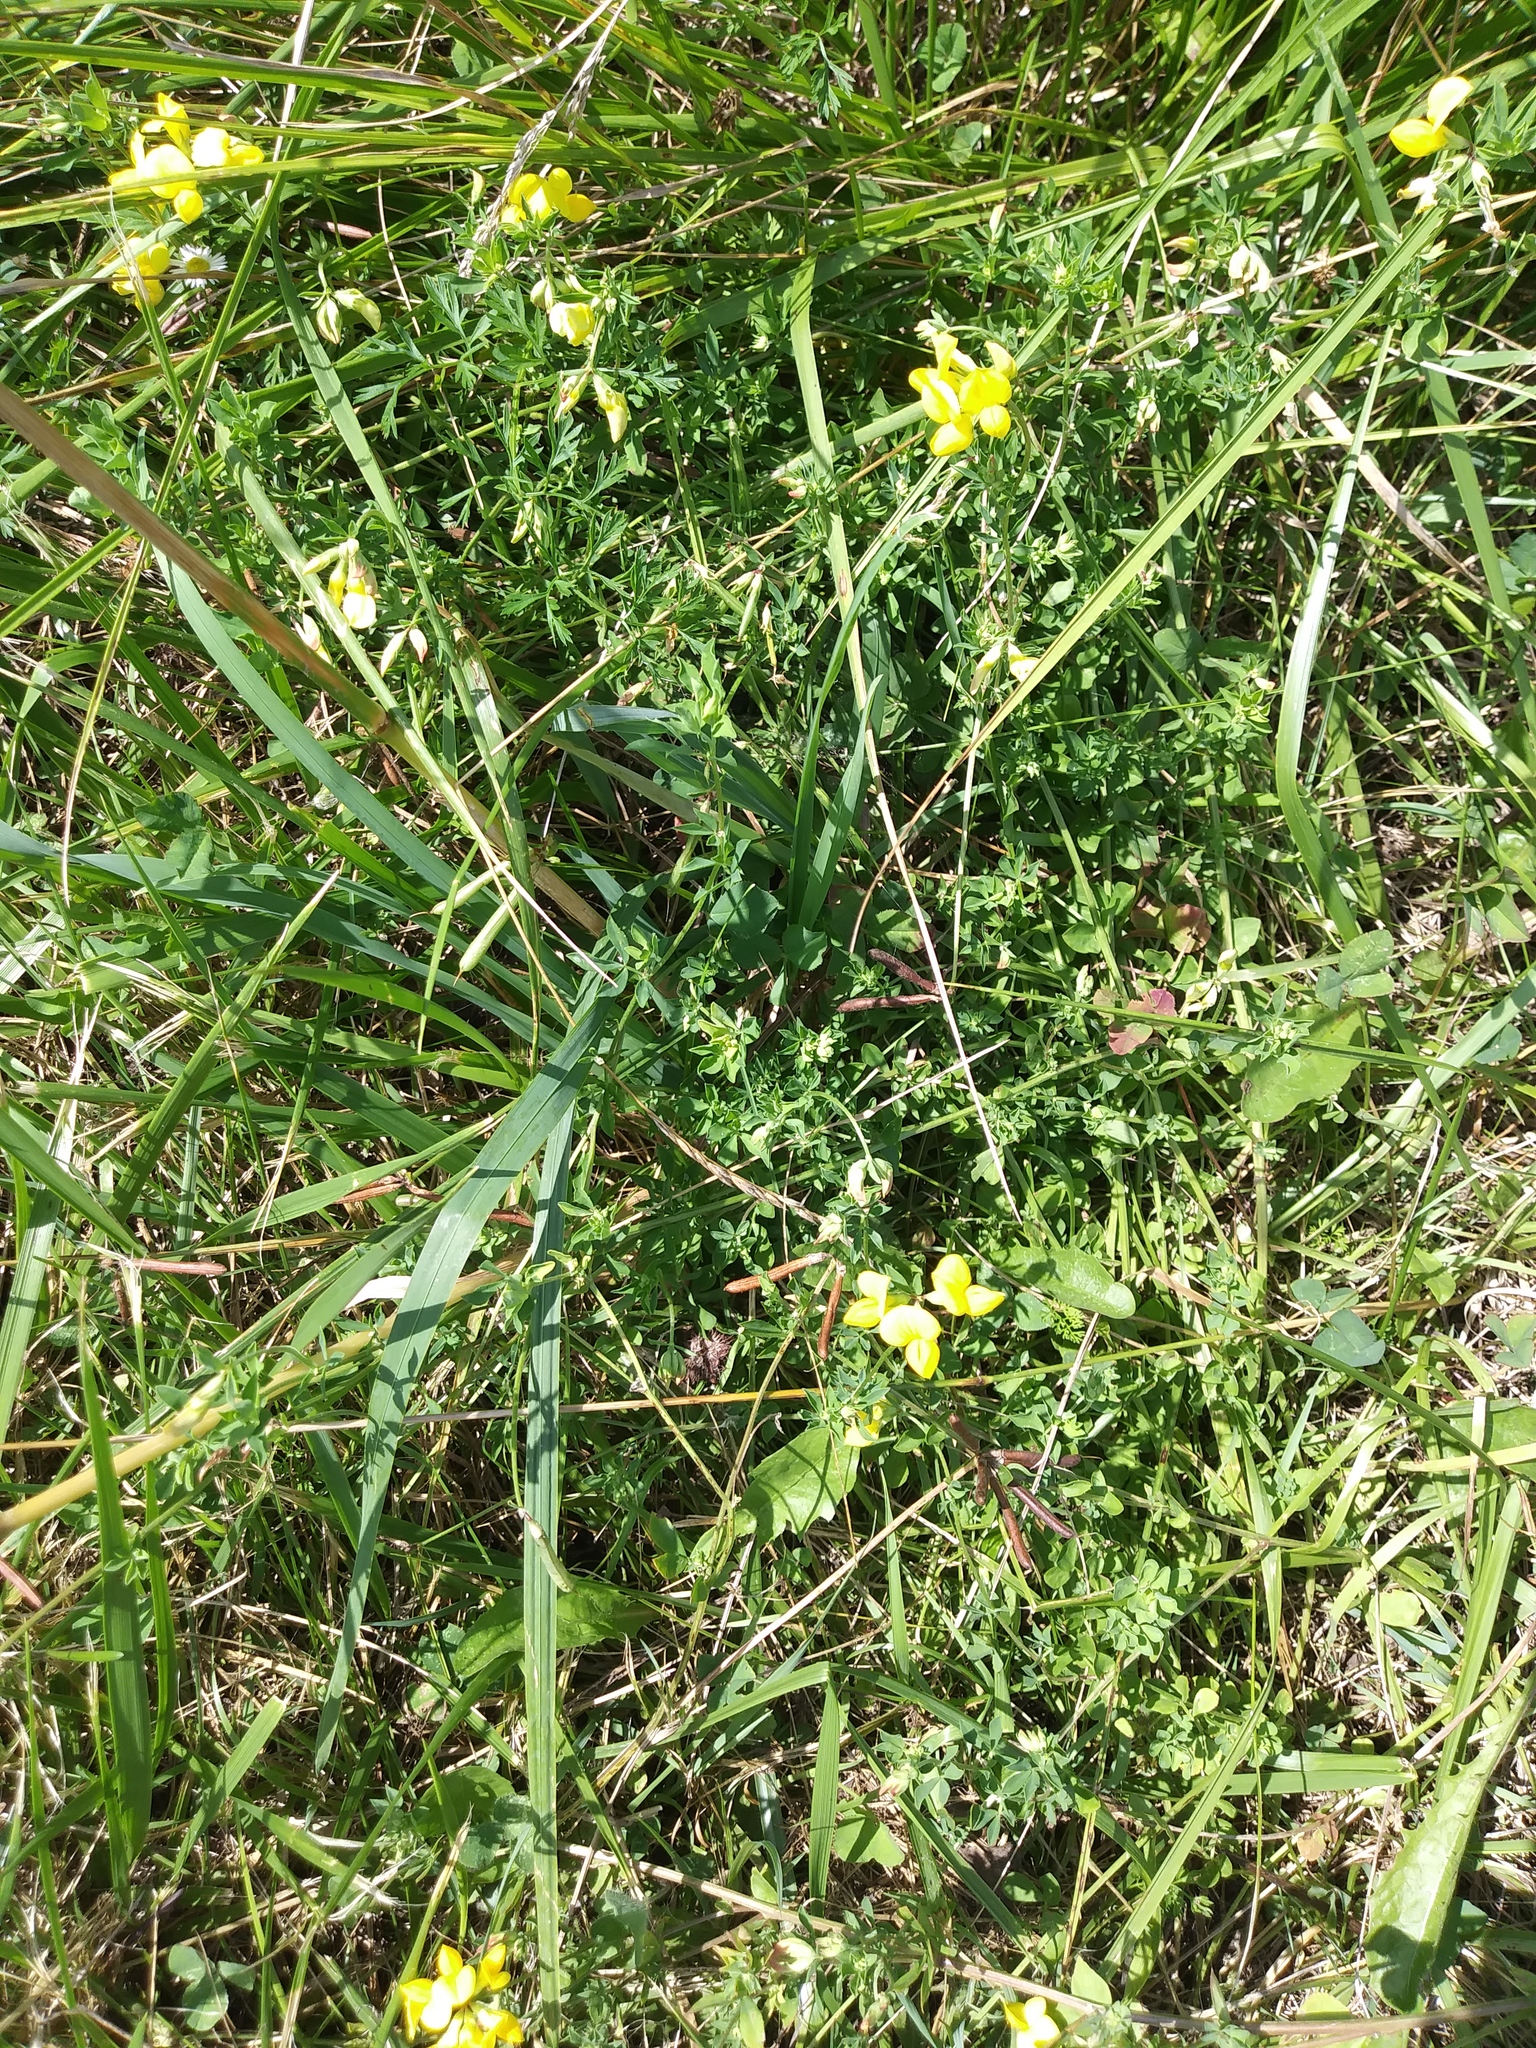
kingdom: Plantae
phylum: Tracheophyta
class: Magnoliopsida
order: Fabales
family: Fabaceae
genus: Lotus
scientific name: Lotus corniculatus
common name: Common bird's-foot-trefoil
